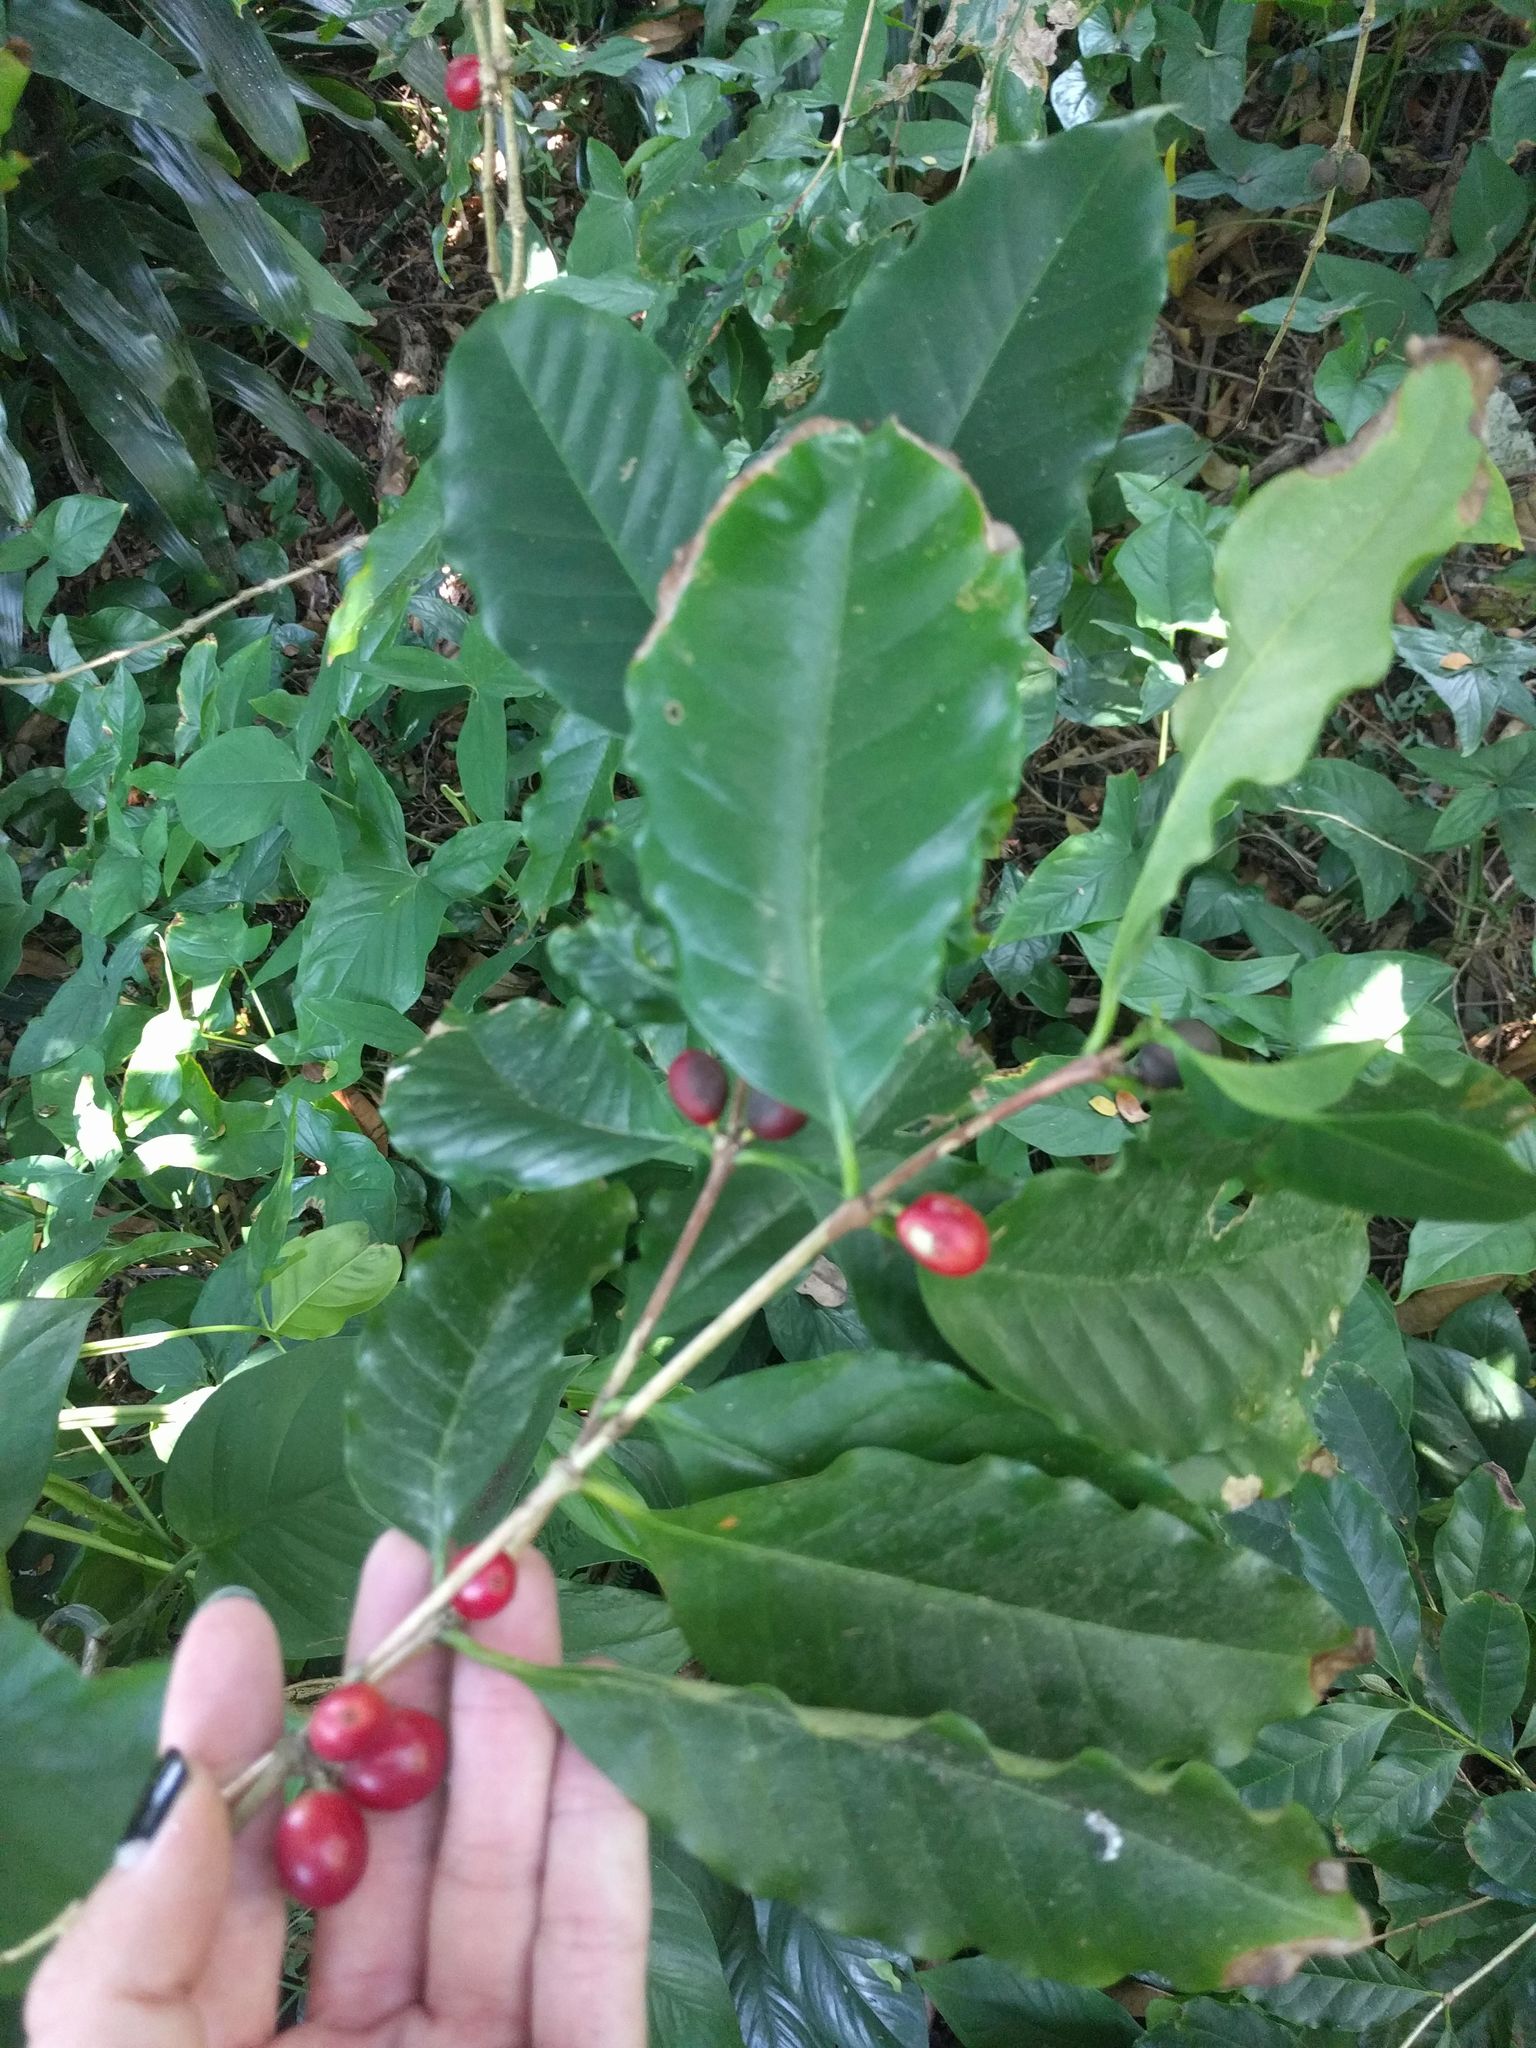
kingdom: Plantae
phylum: Tracheophyta
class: Magnoliopsida
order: Gentianales
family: Rubiaceae
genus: Coffea
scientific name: Coffea arabica
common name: Coffee
